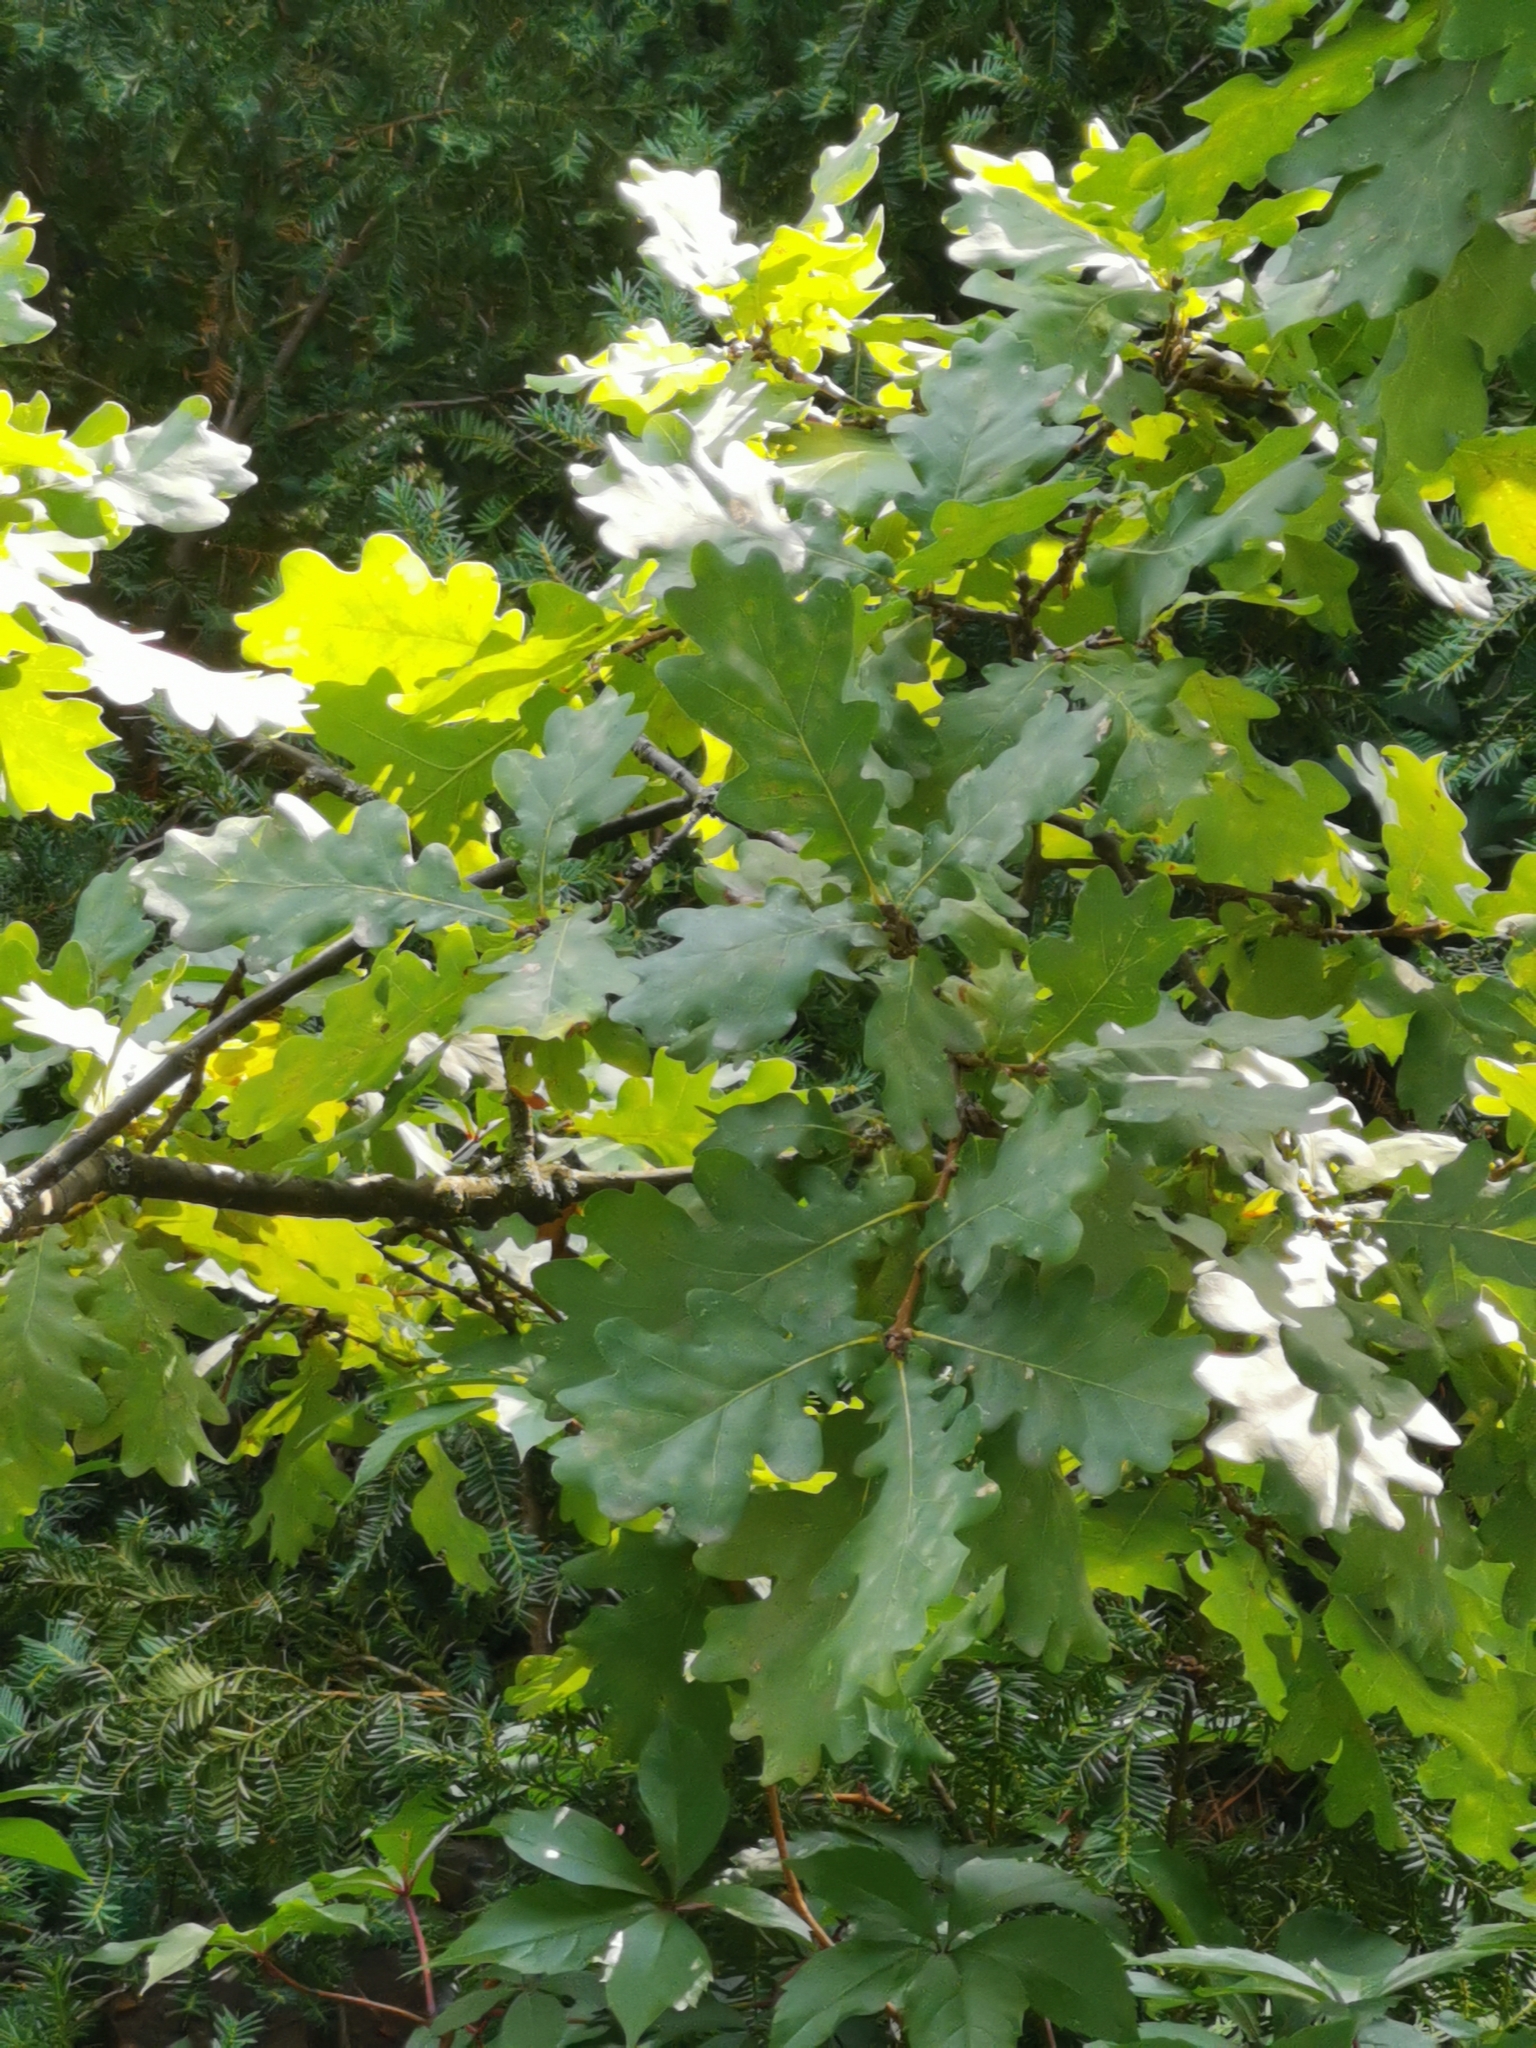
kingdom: Plantae
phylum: Tracheophyta
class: Magnoliopsida
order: Fagales
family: Fagaceae
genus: Quercus
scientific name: Quercus robur
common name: Pedunculate oak
